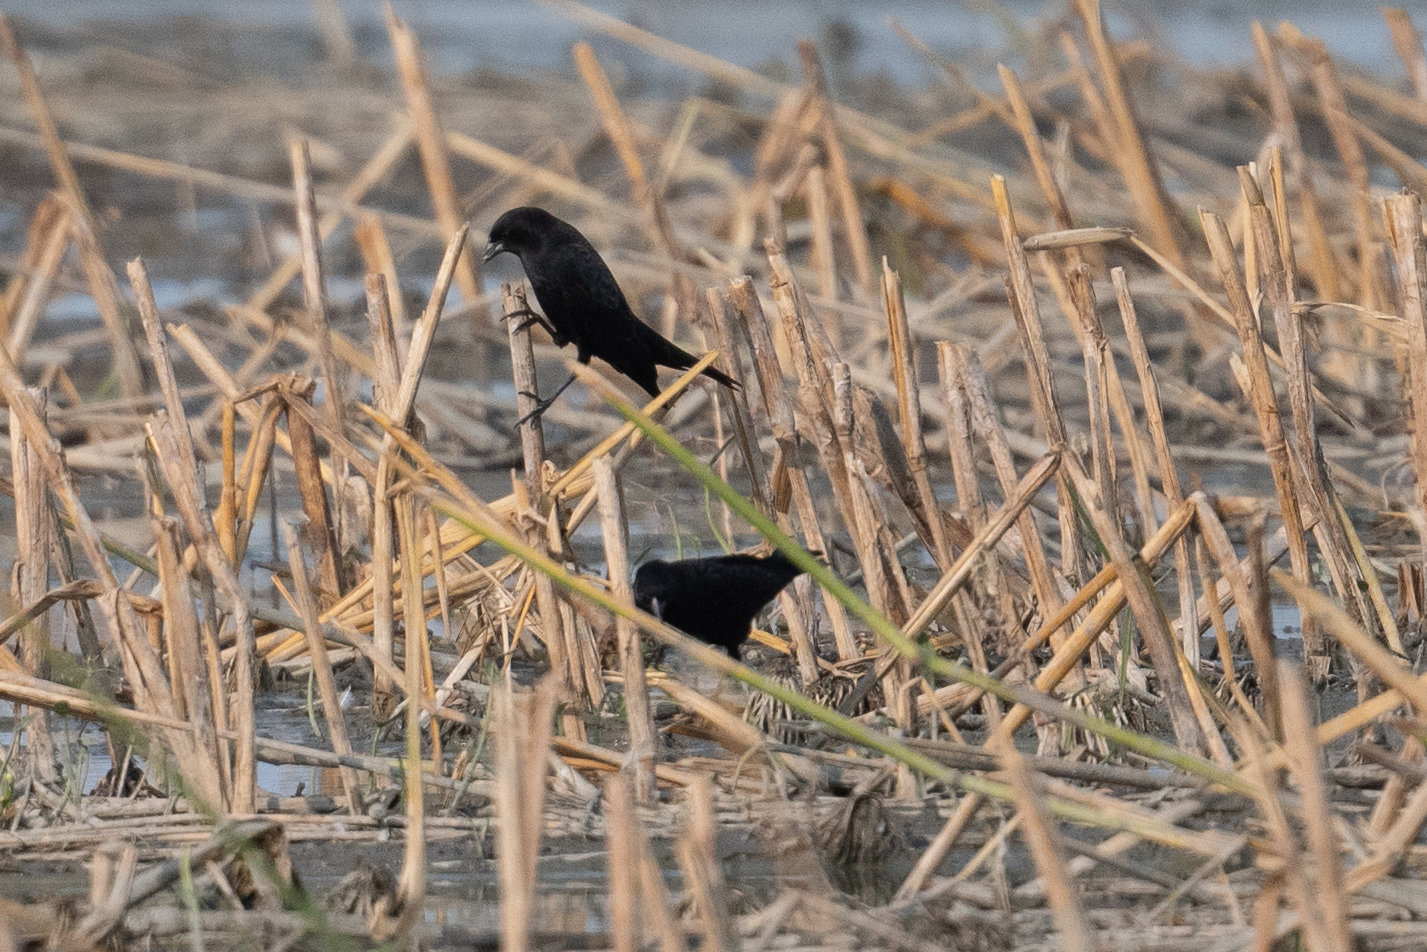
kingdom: Animalia
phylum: Chordata
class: Aves
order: Passeriformes
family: Icteridae
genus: Agelaius
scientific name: Agelaius phoeniceus
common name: Red-winged blackbird
